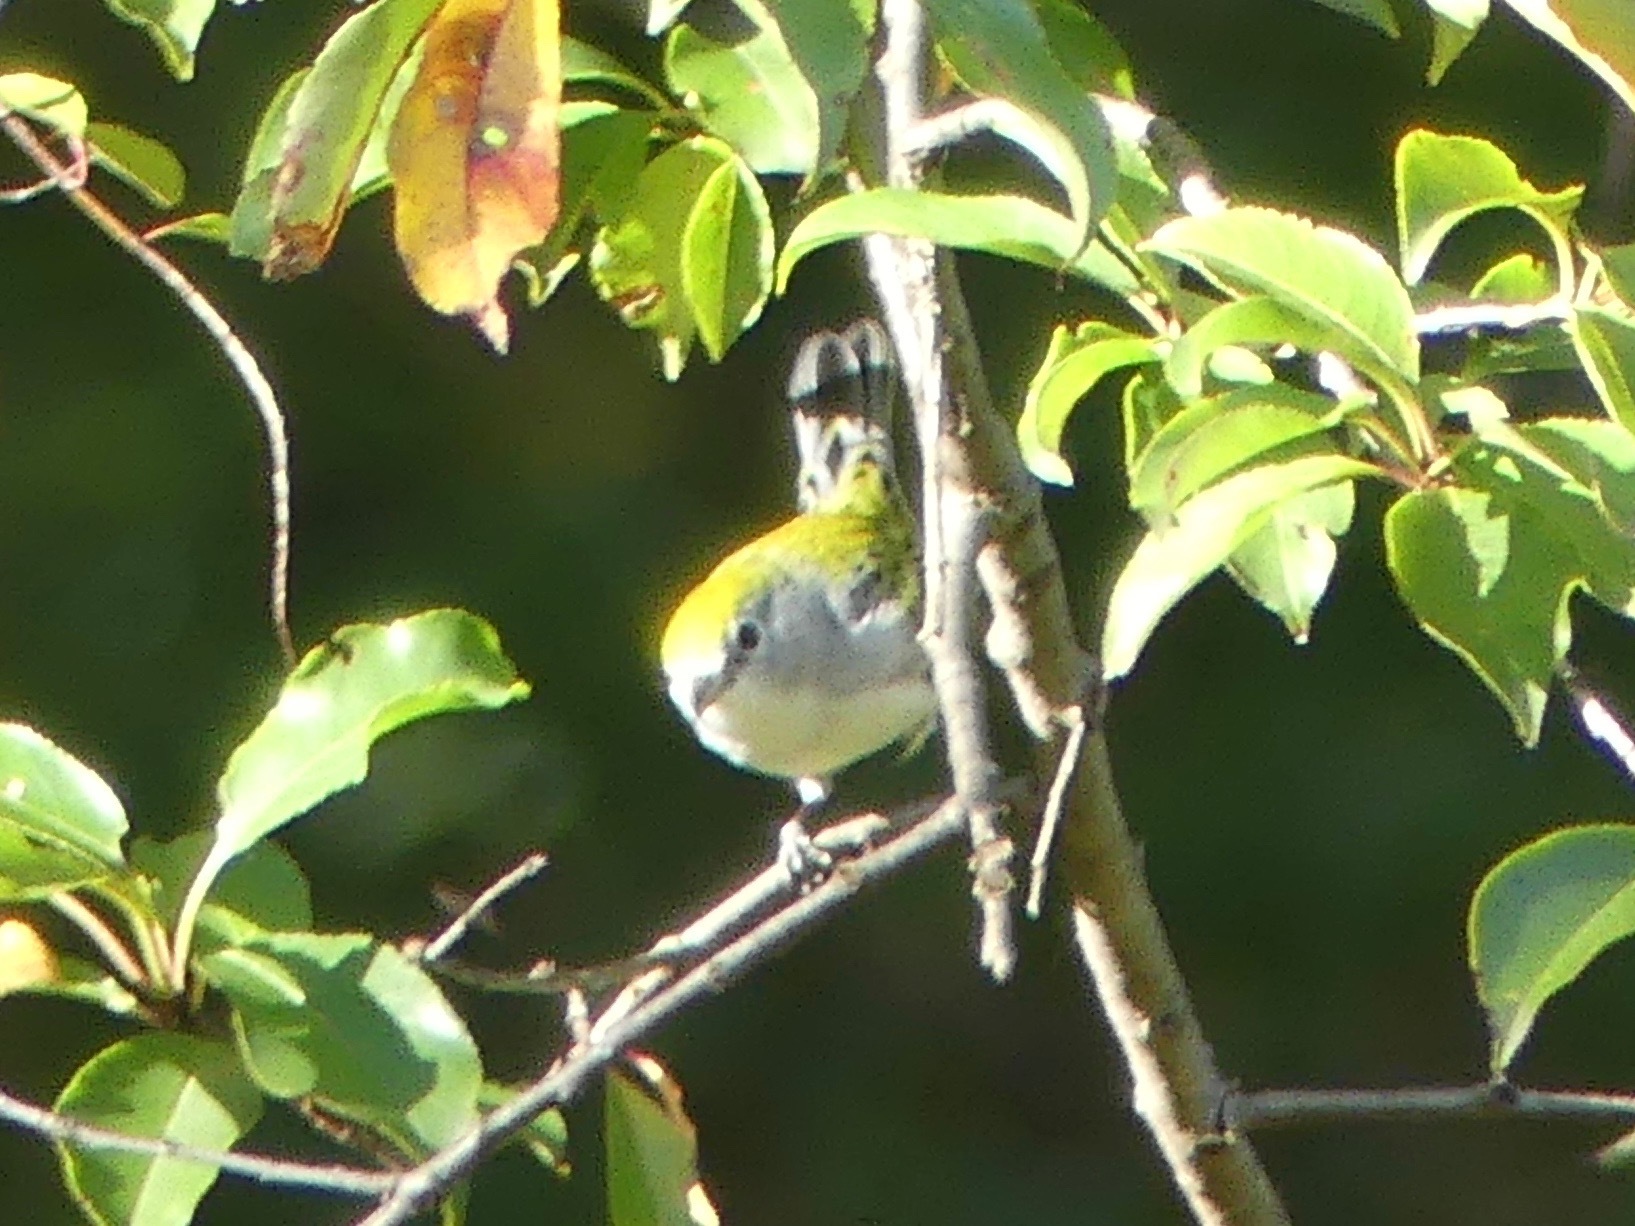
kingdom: Animalia
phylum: Chordata
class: Aves
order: Passeriformes
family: Parulidae
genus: Setophaga
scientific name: Setophaga pensylvanica
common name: Chestnut-sided warbler
